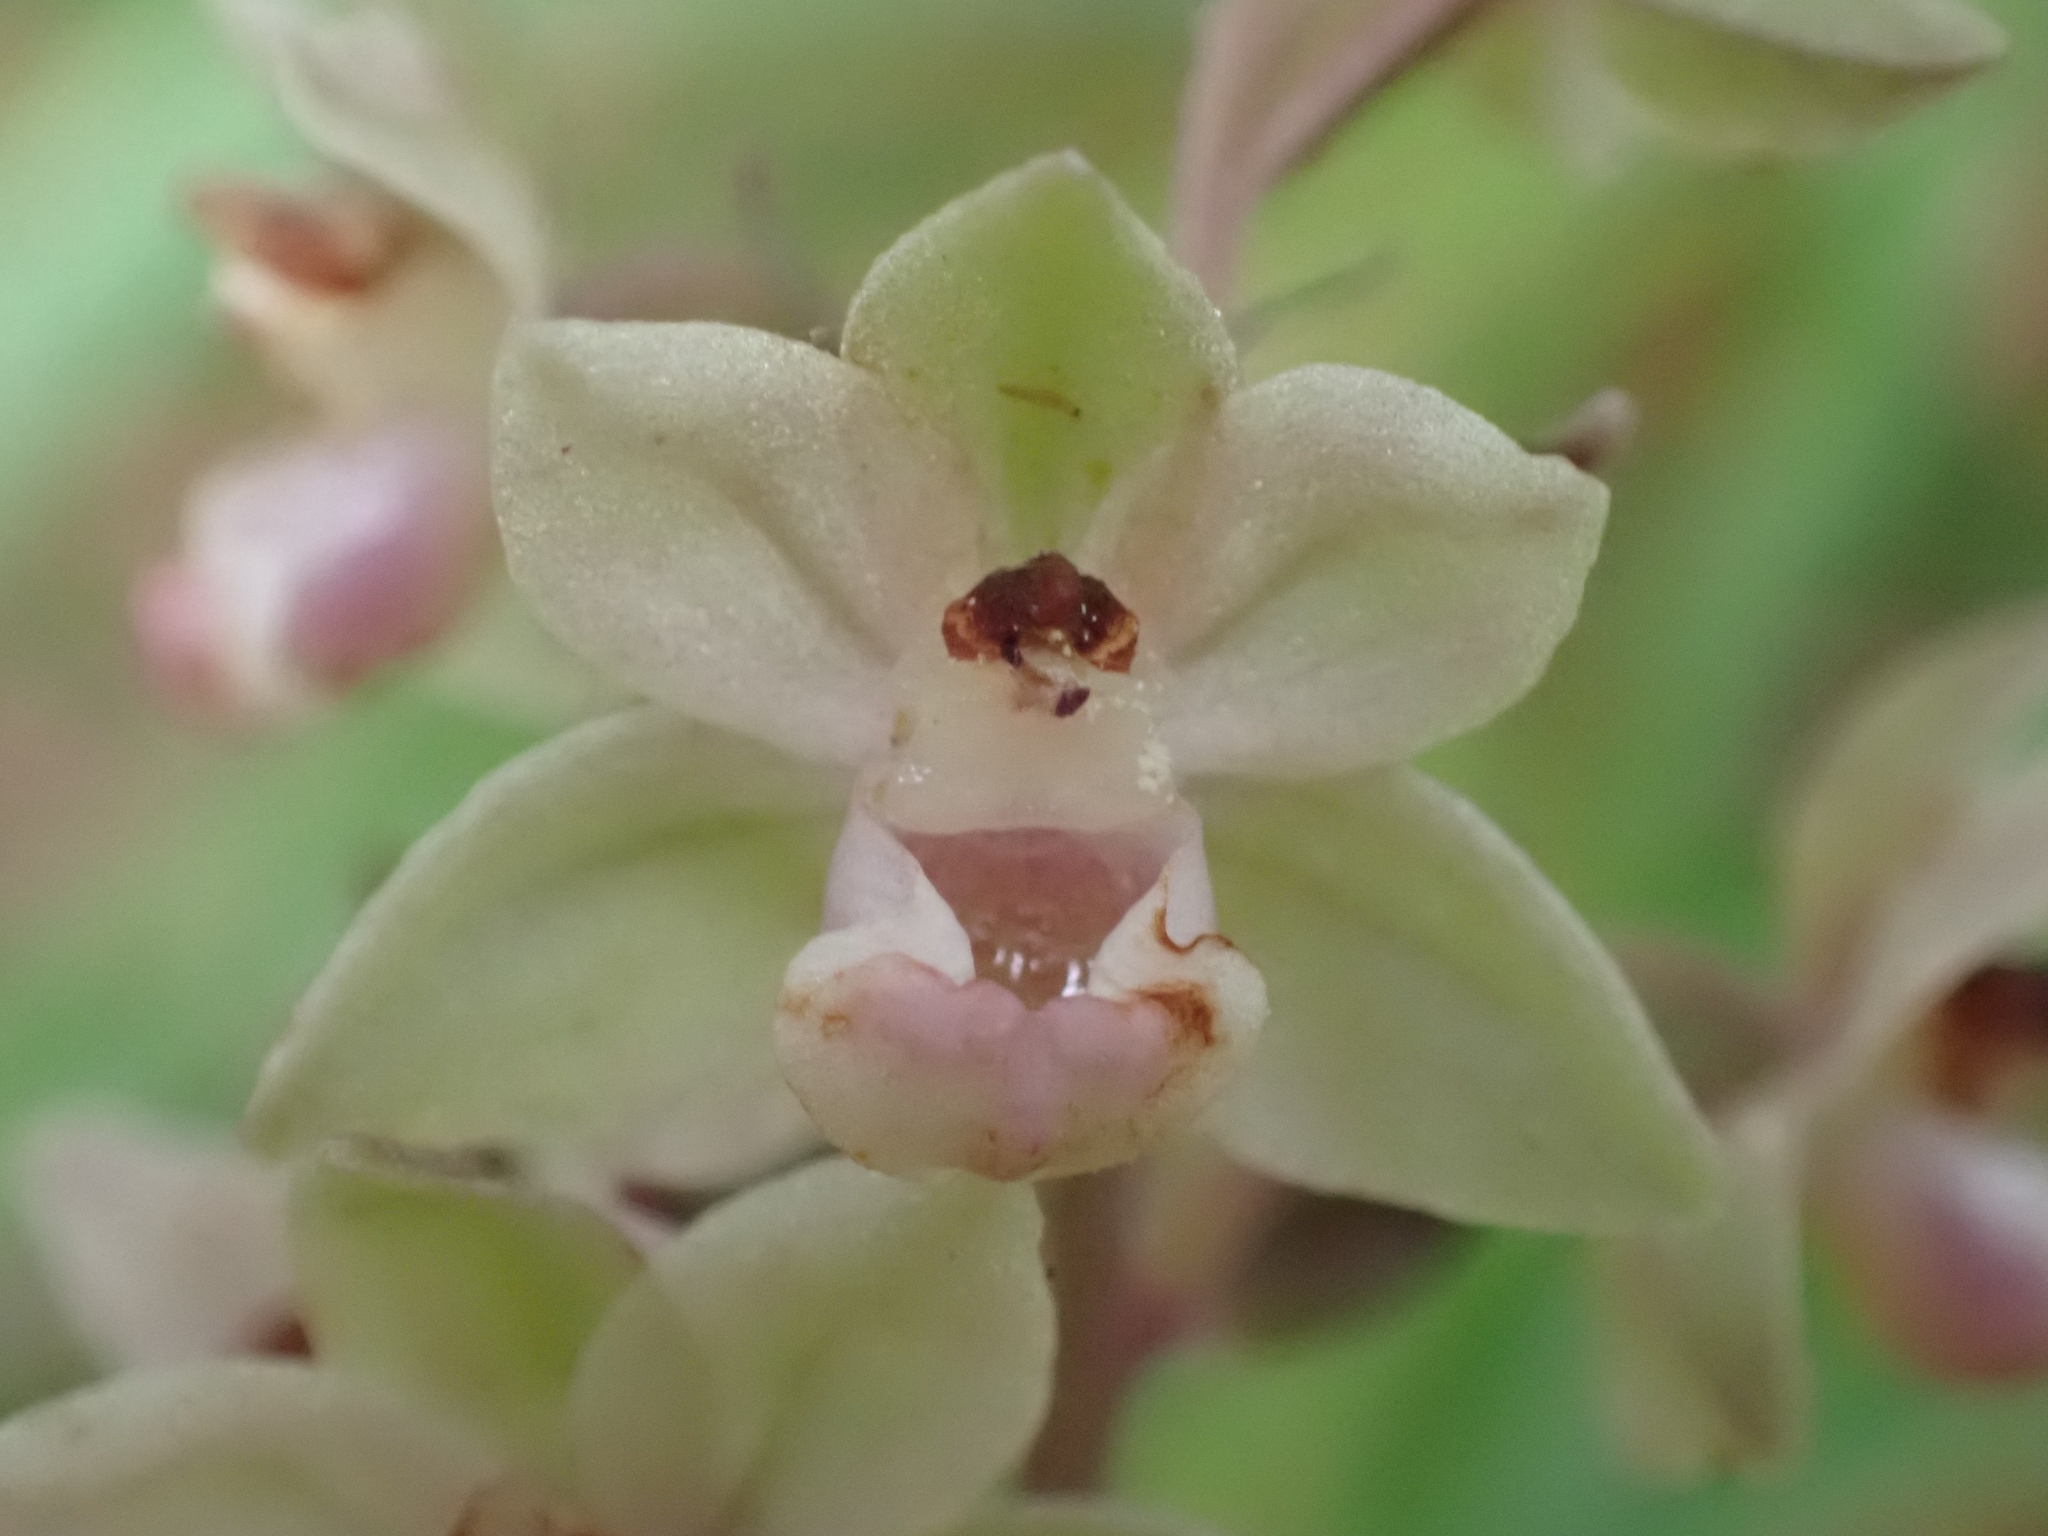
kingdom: Plantae
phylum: Tracheophyta
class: Liliopsida
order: Asparagales
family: Orchidaceae
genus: Epipactis
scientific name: Epipactis purpurata
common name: Violet helleborine
